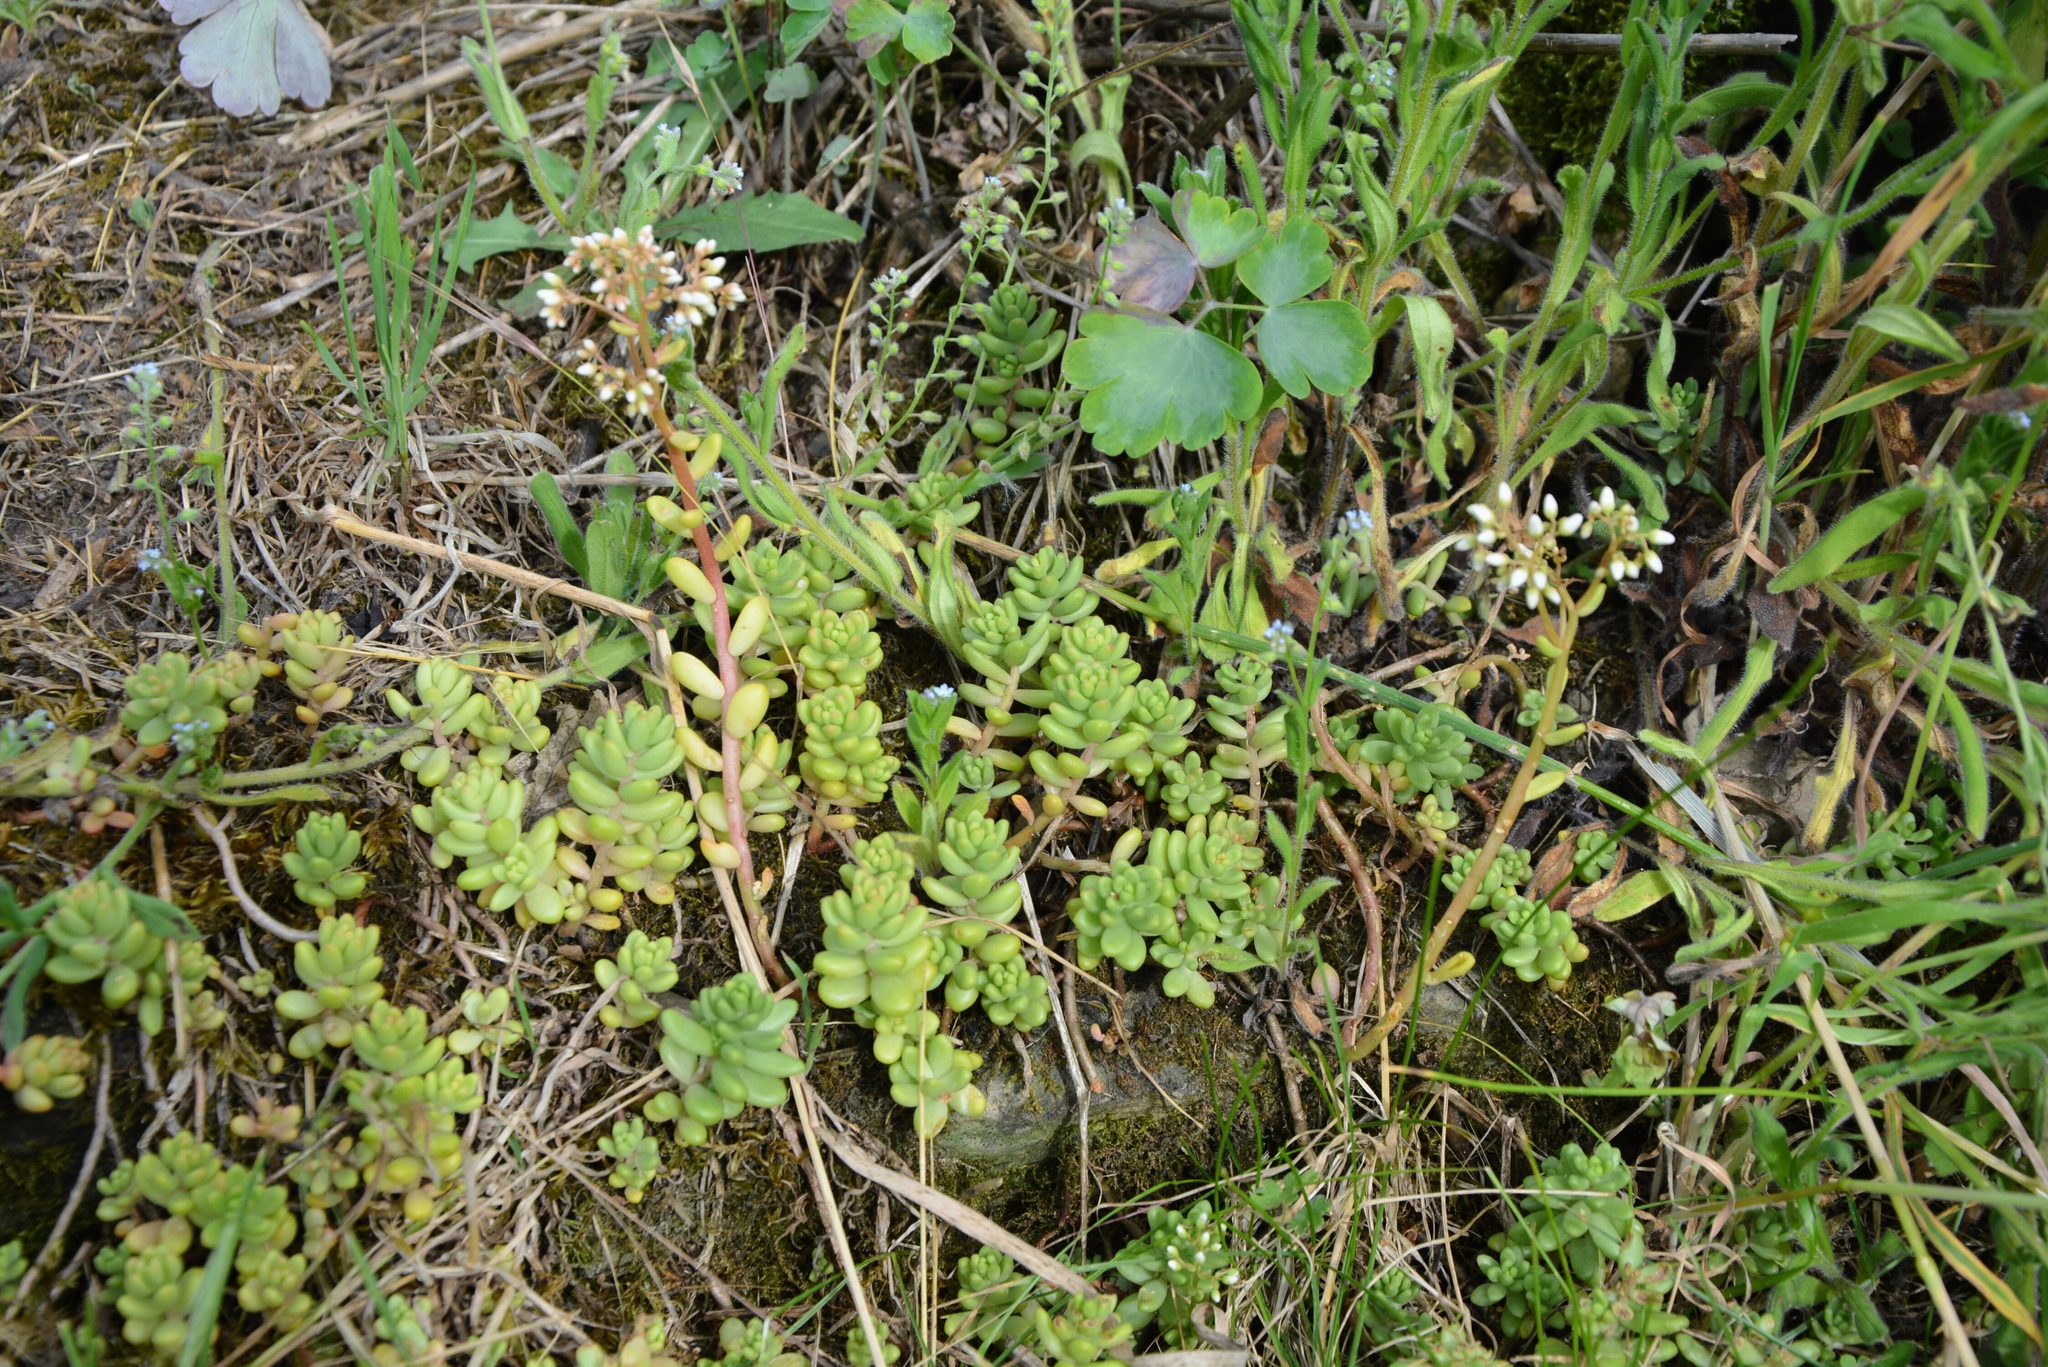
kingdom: Plantae
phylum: Tracheophyta
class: Magnoliopsida
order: Saxifragales
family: Crassulaceae
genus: Sedum
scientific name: Sedum album
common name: White stonecrop
